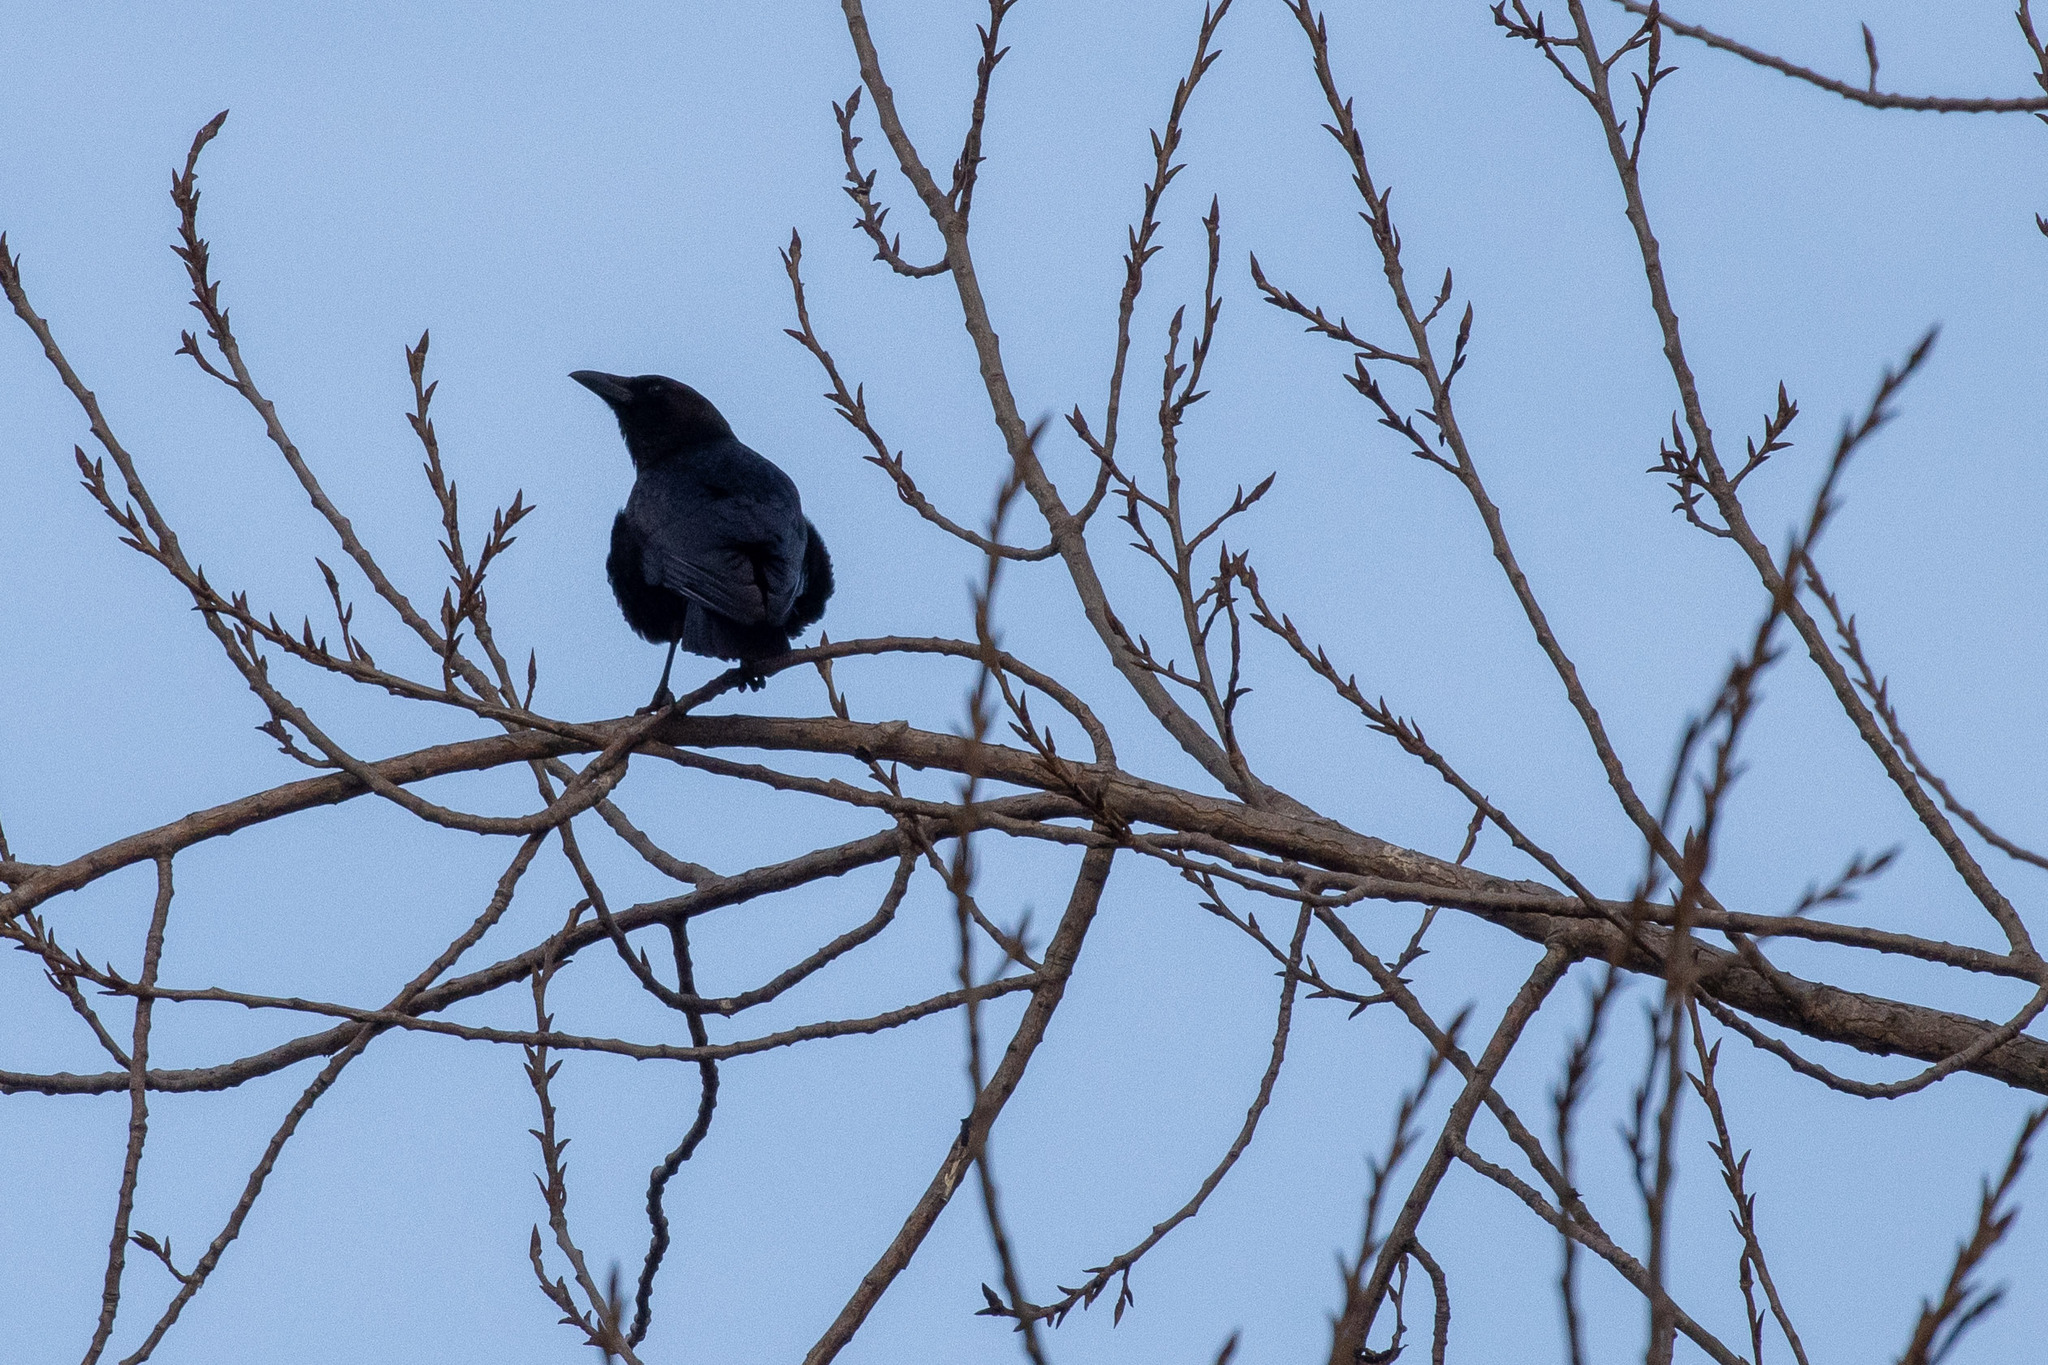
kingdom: Animalia
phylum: Chordata
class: Aves
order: Passeriformes
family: Corvidae
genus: Corvus
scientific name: Corvus corone
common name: Carrion crow
